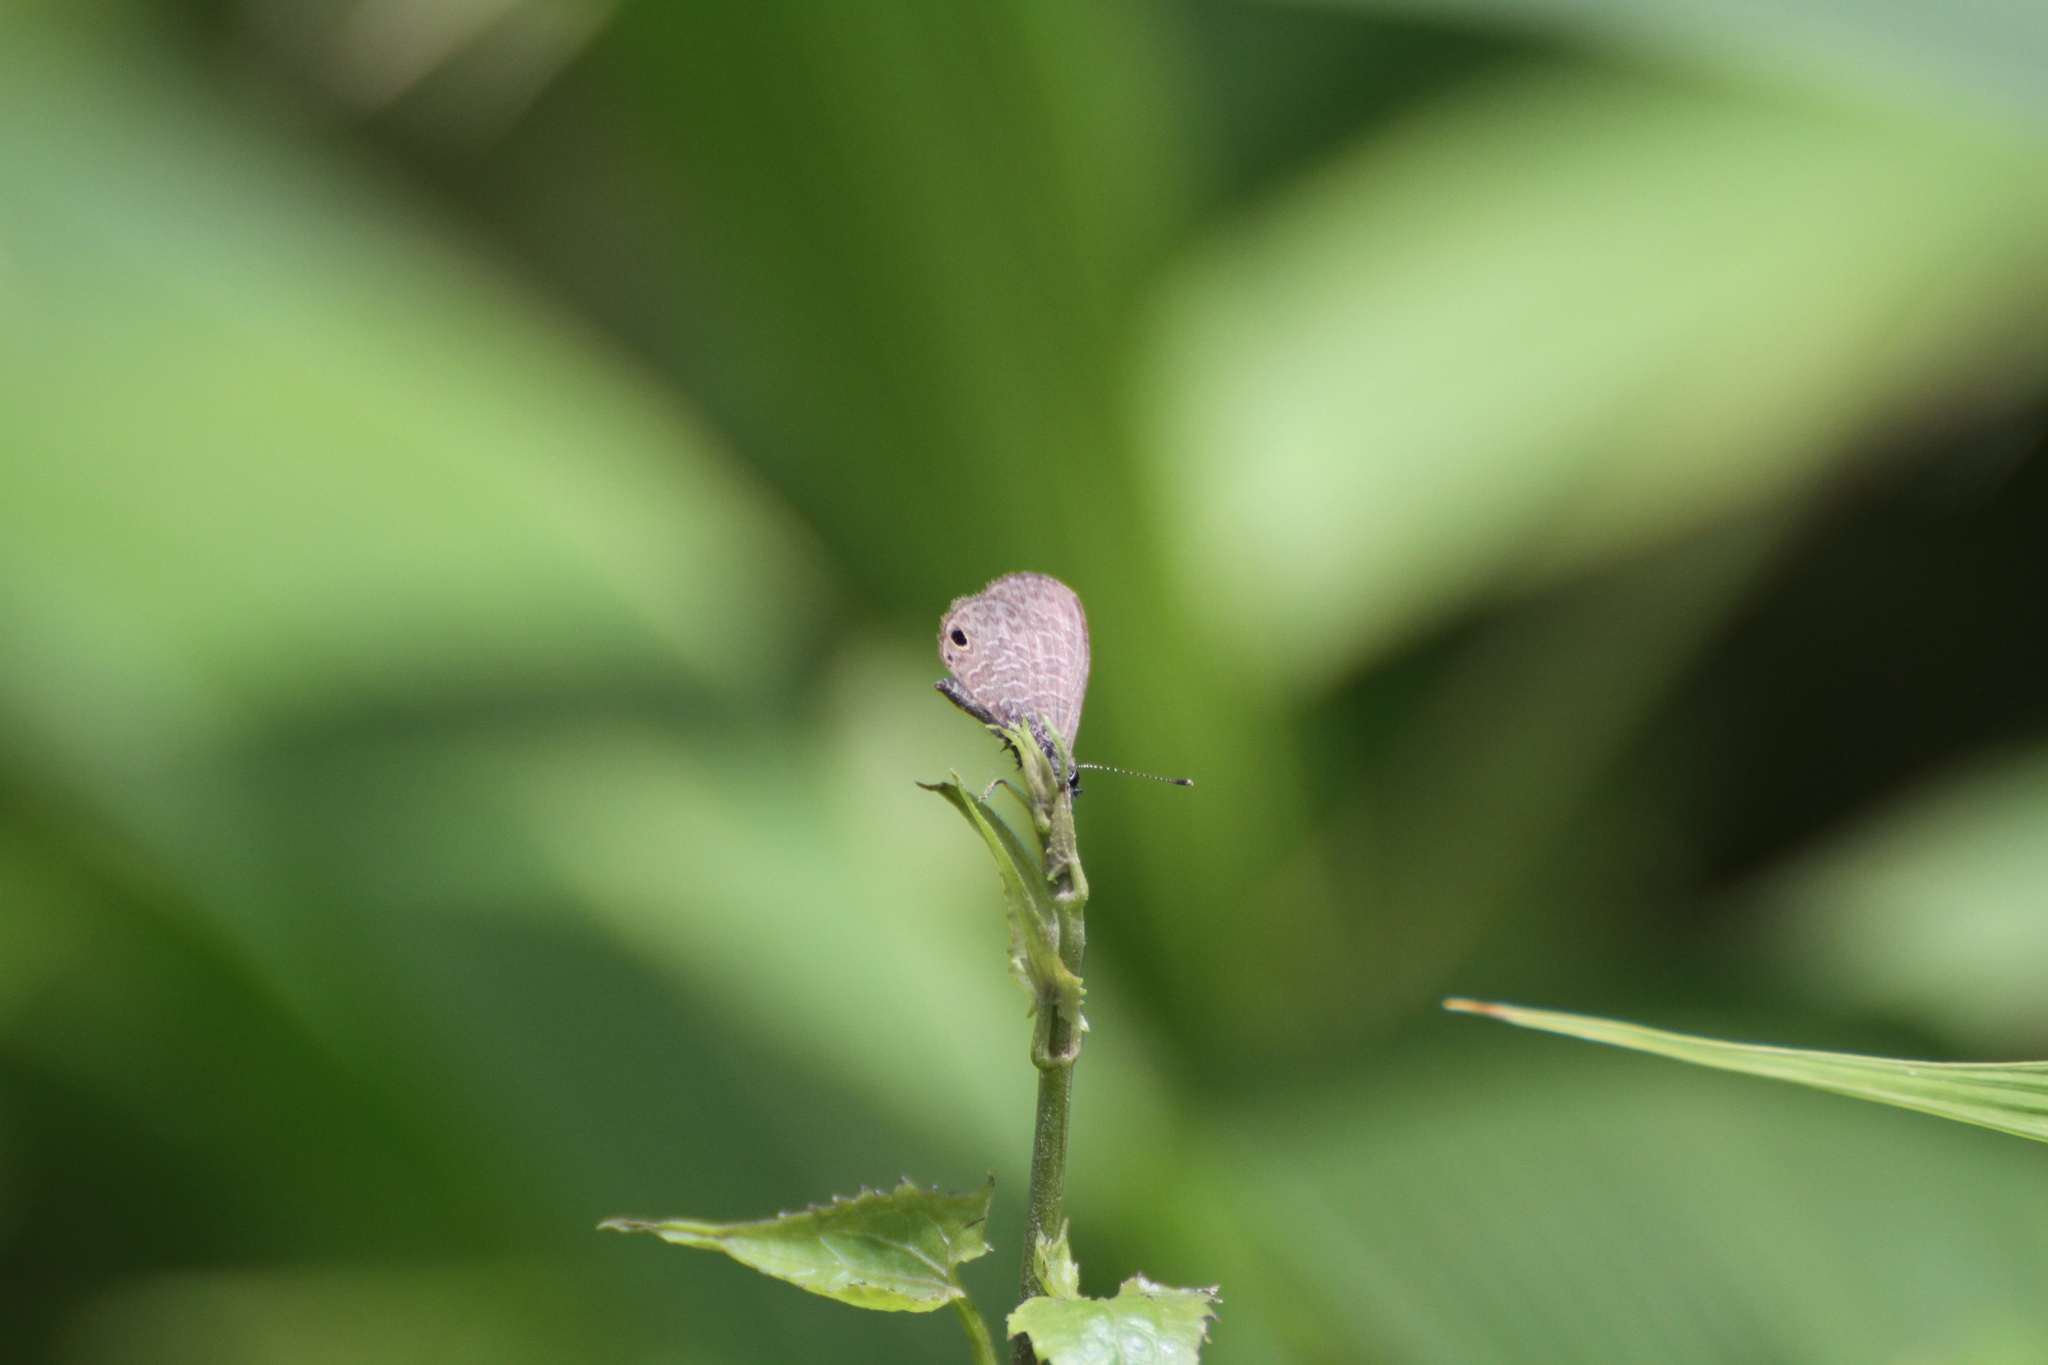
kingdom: Animalia
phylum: Arthropoda
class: Insecta
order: Lepidoptera
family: Lycaenidae
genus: Prosotas
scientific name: Prosotas dubiosa
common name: Tailless lineblue
